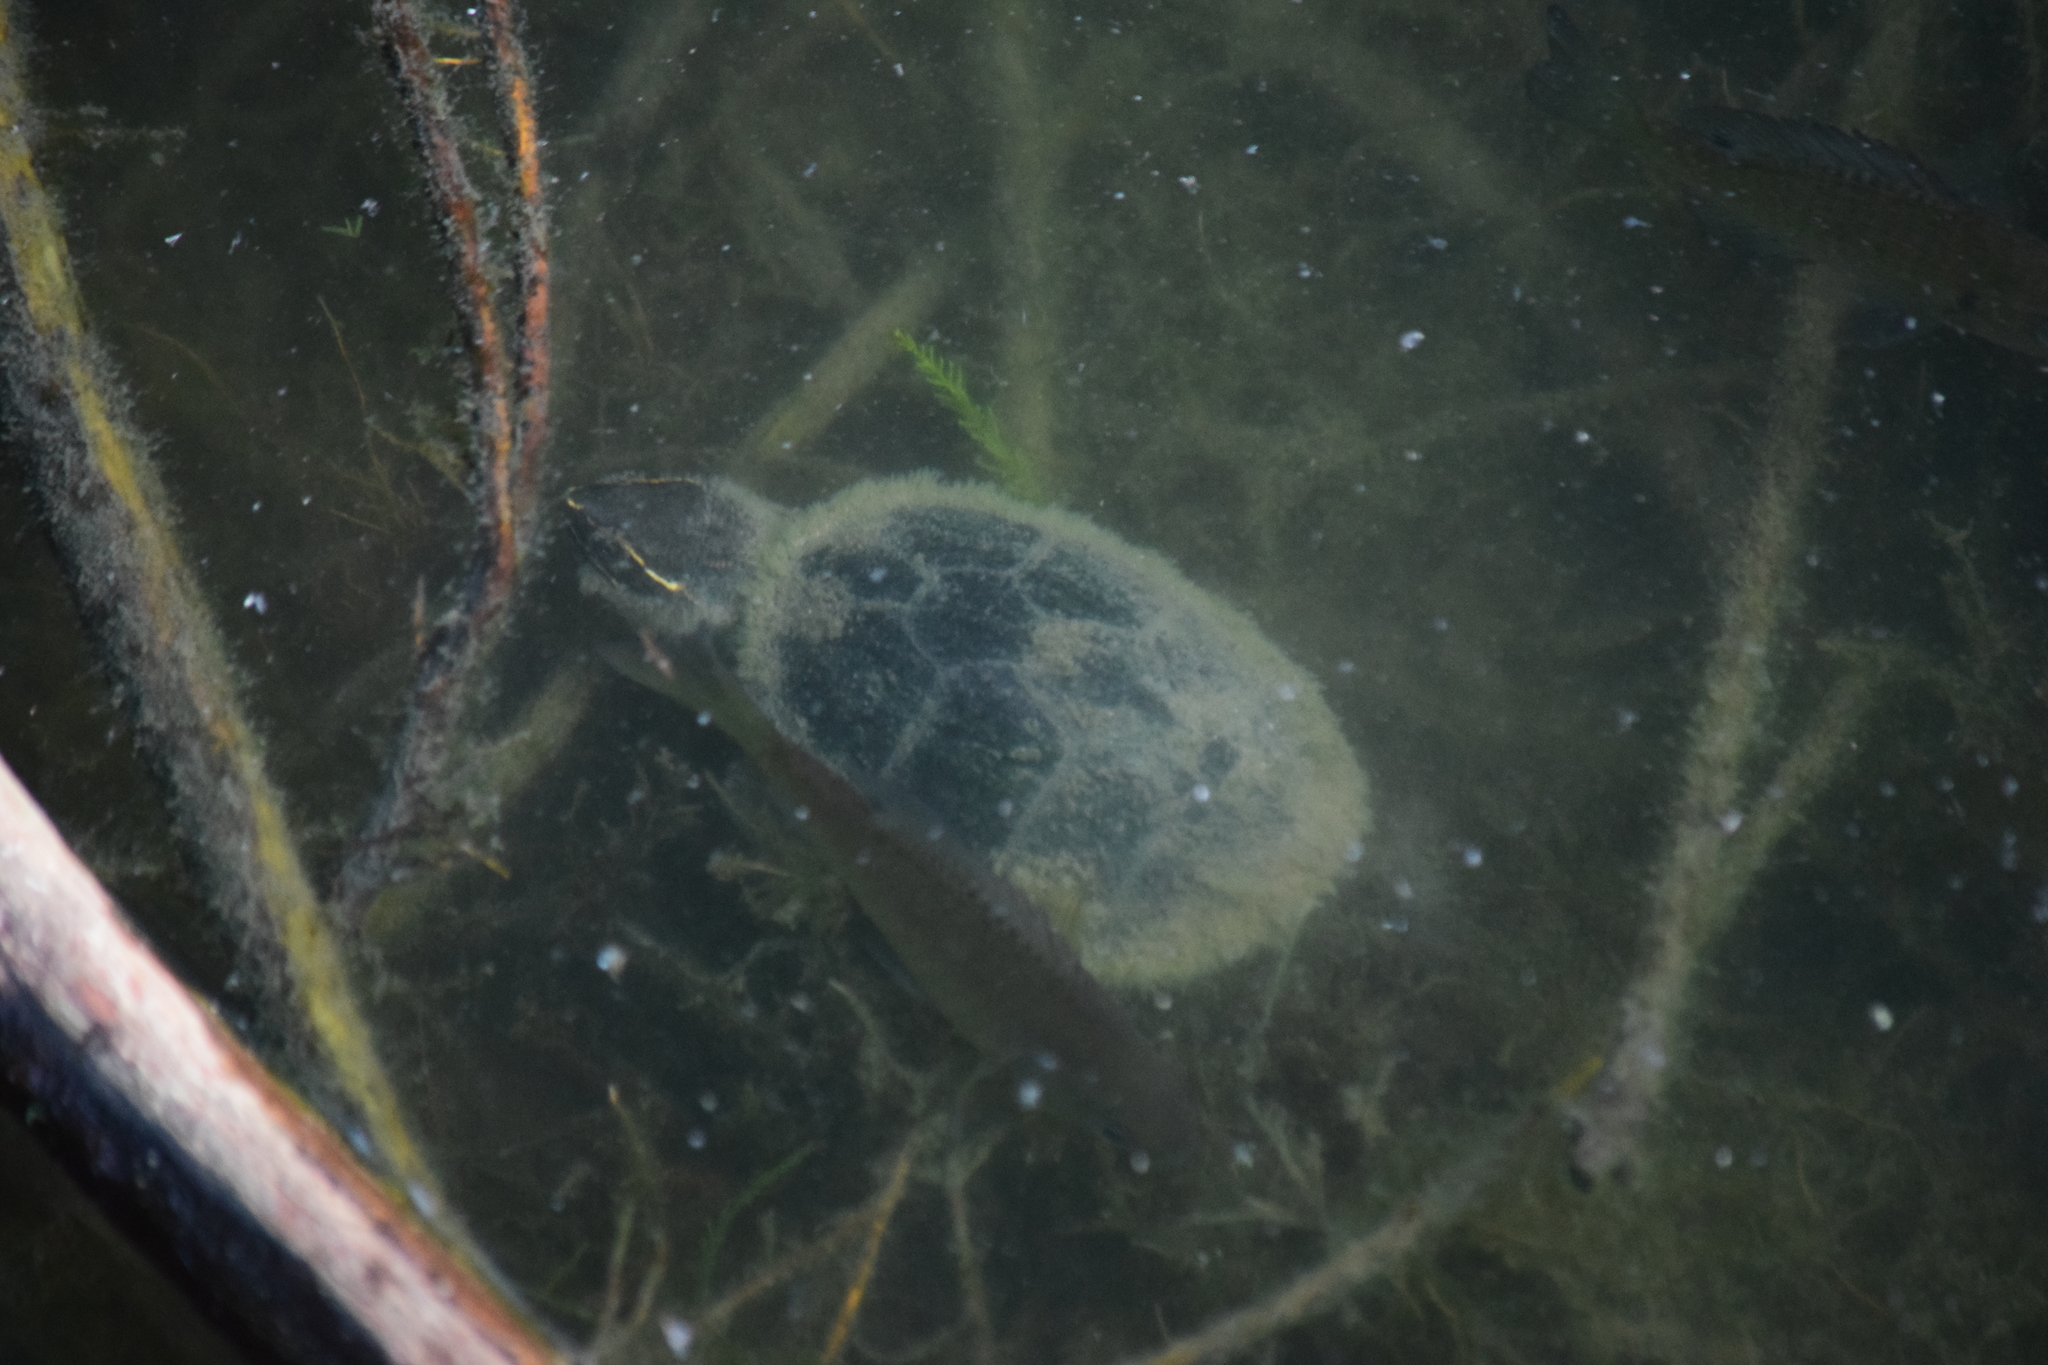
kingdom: Animalia
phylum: Chordata
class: Testudines
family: Kinosternidae
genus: Sternotherus
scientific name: Sternotherus odoratus
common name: Common musk turtle
